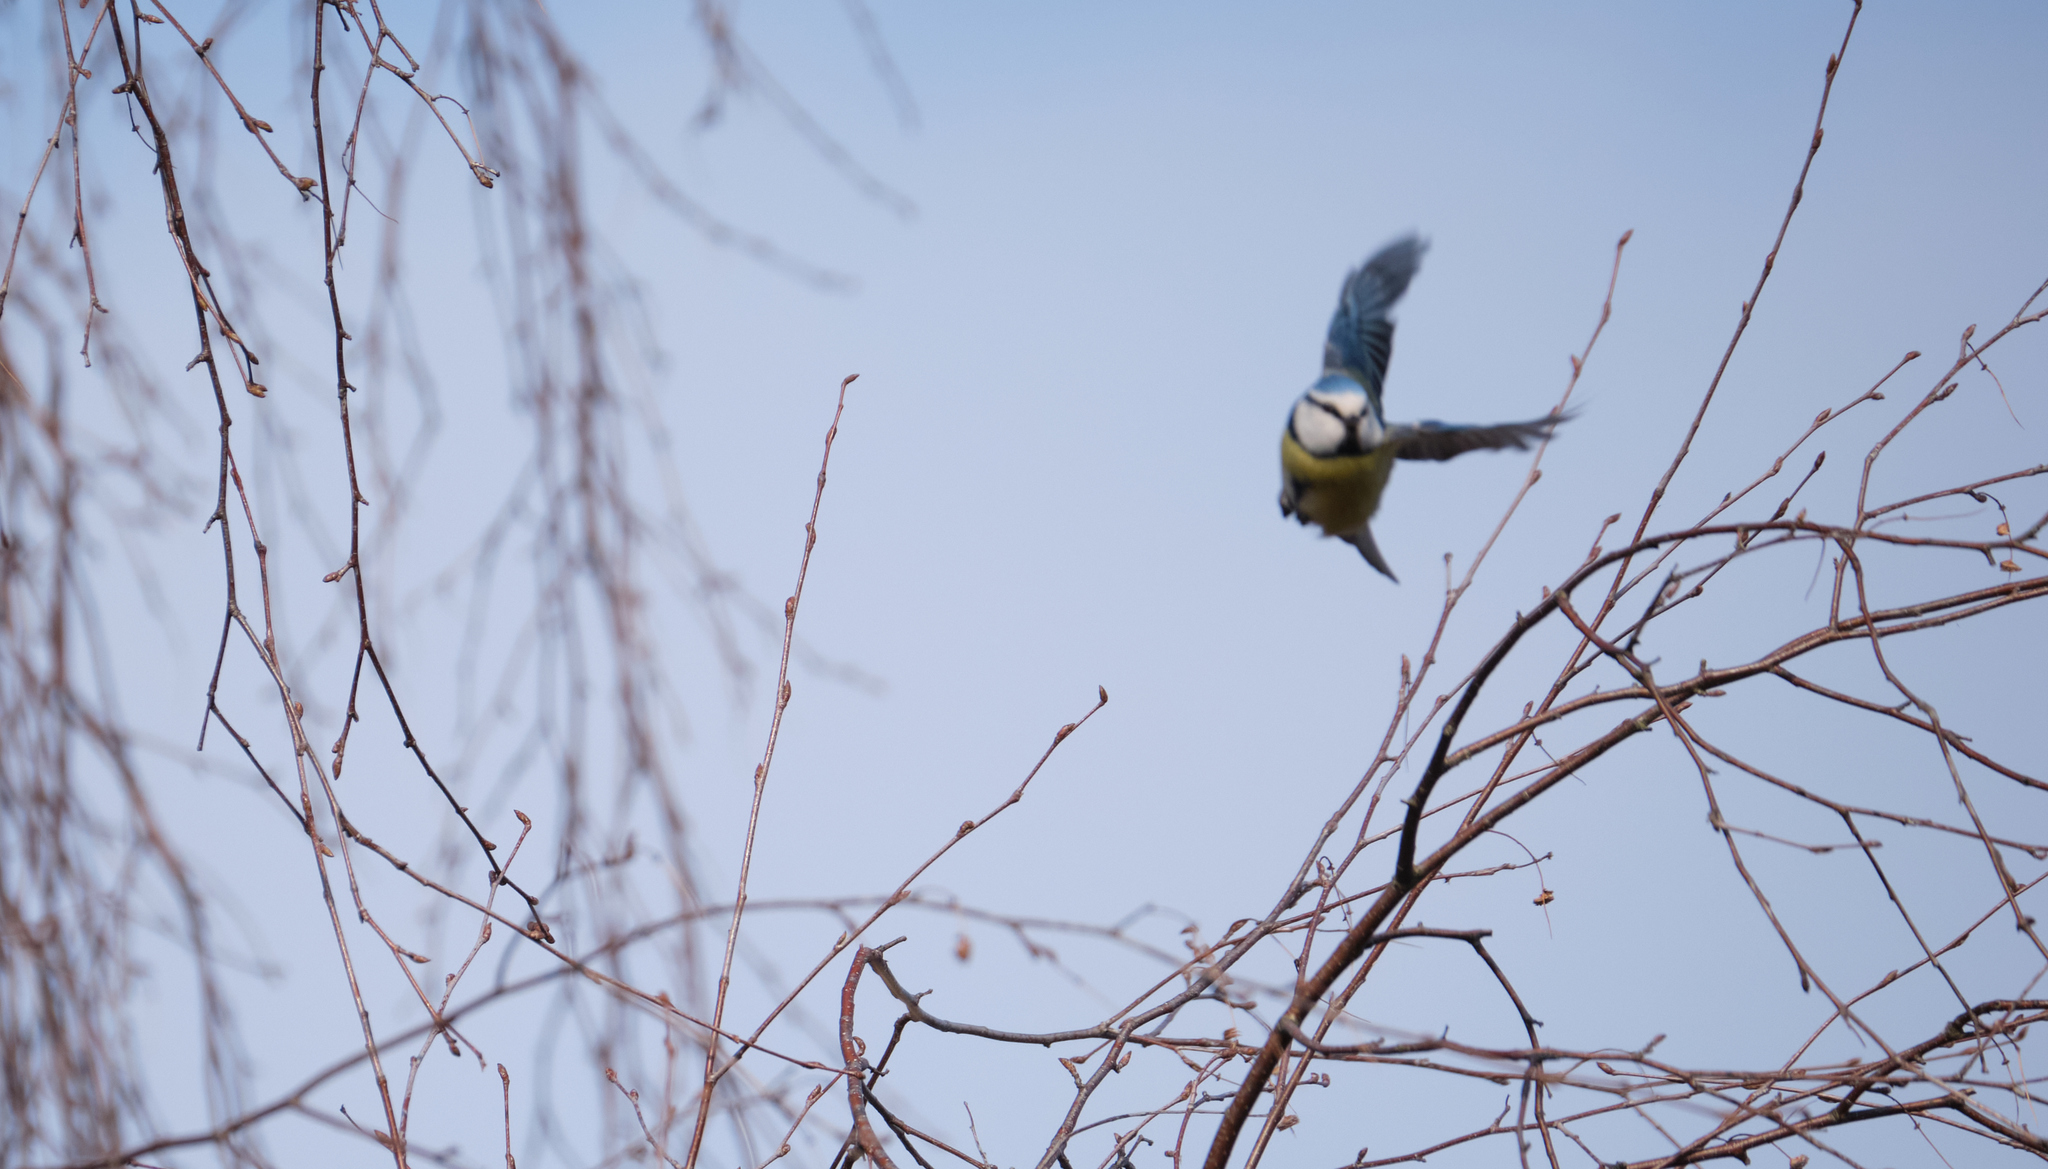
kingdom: Animalia
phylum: Chordata
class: Aves
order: Passeriformes
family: Paridae
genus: Cyanistes
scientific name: Cyanistes caeruleus
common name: Eurasian blue tit
